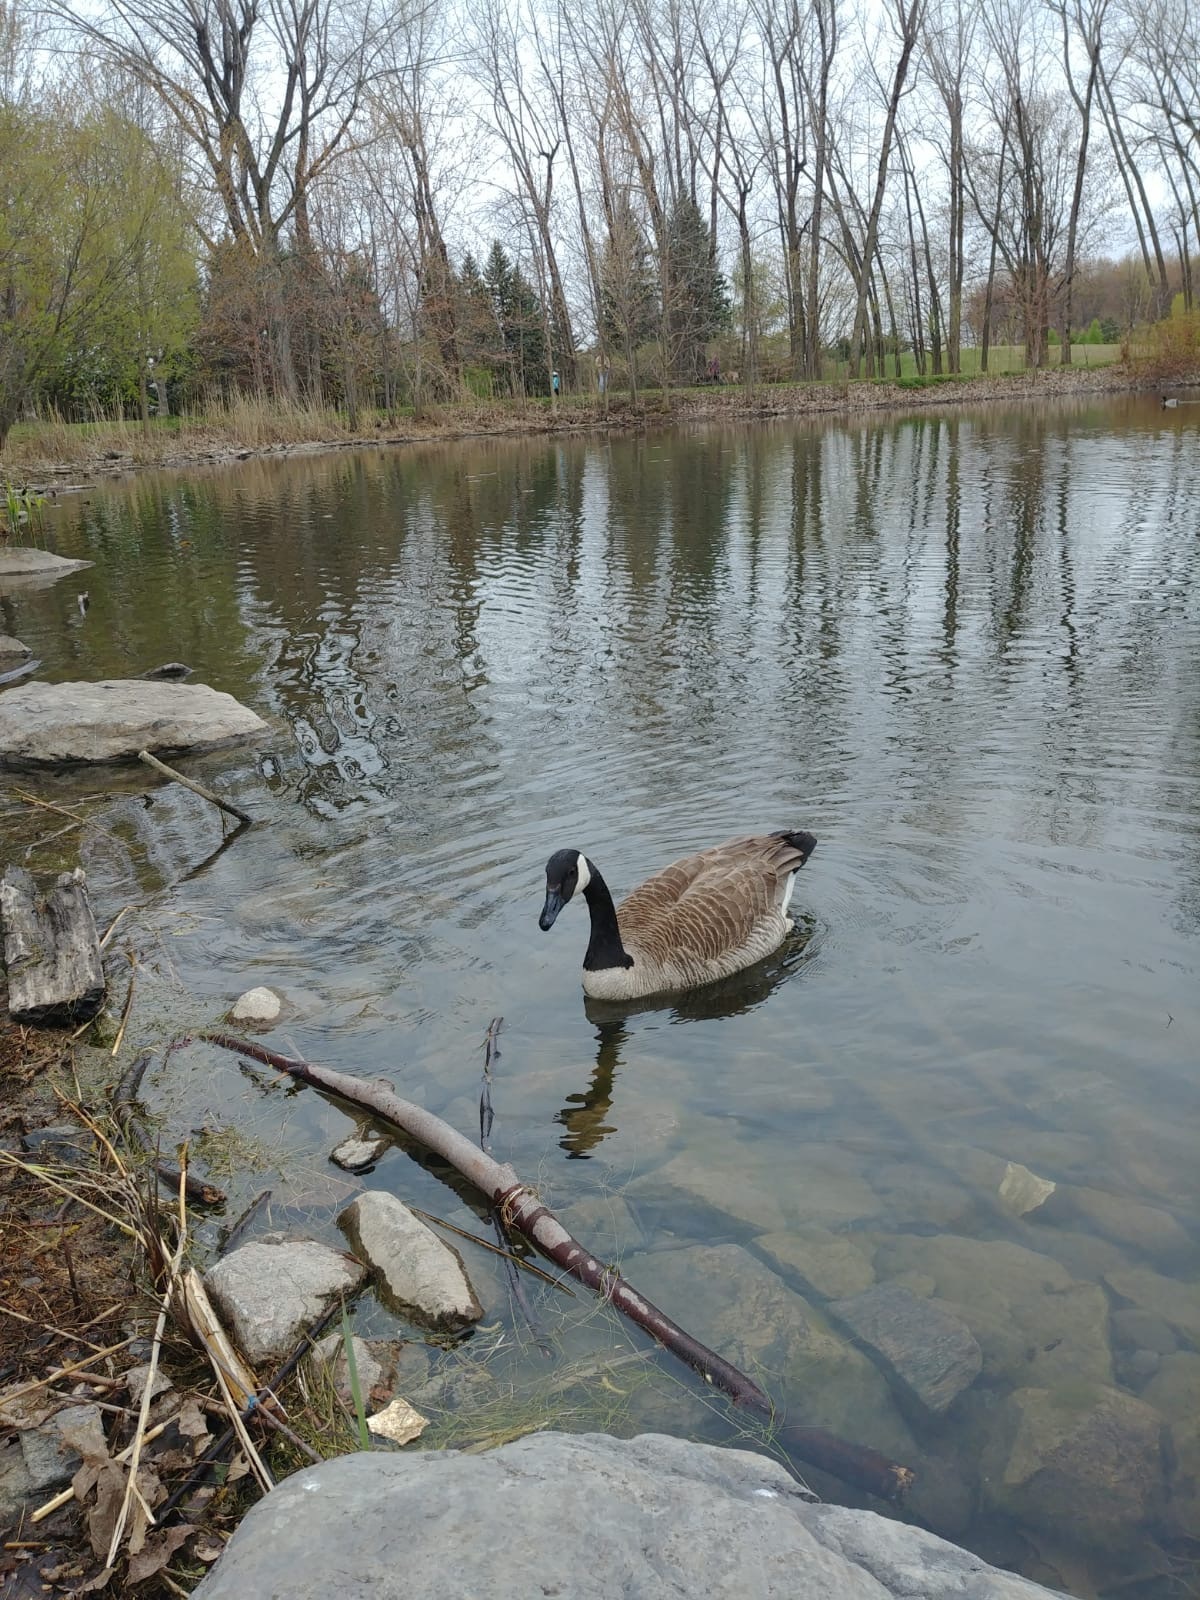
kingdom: Animalia
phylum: Chordata
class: Aves
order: Anseriformes
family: Anatidae
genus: Branta
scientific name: Branta canadensis
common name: Canada goose
